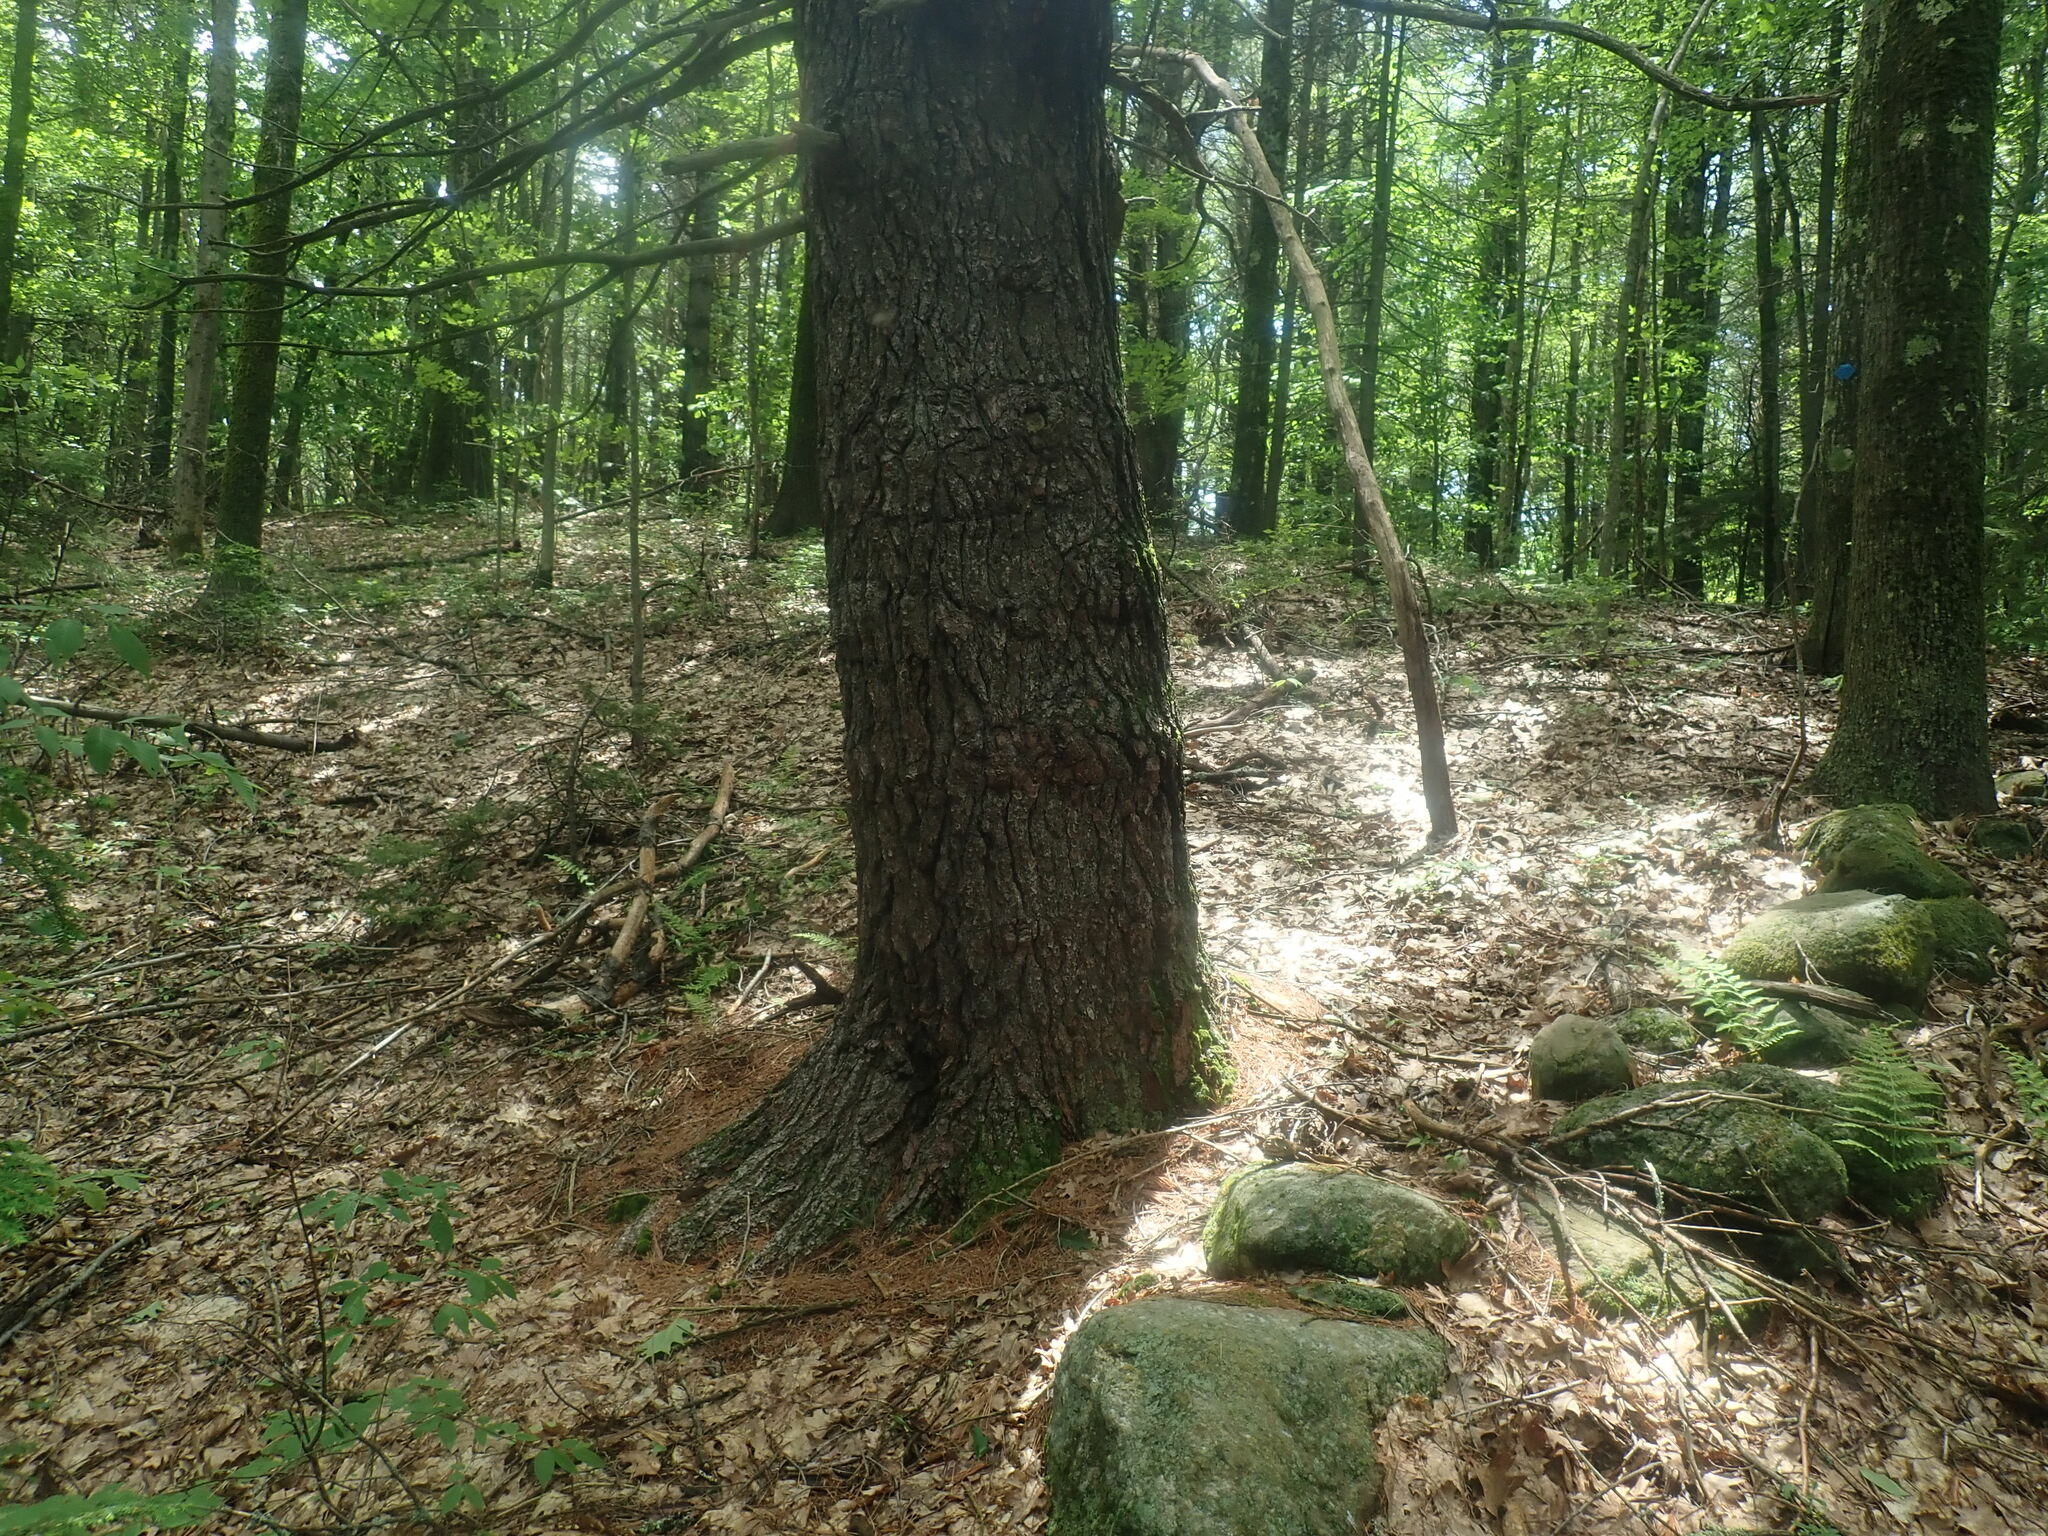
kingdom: Plantae
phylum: Tracheophyta
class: Pinopsida
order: Pinales
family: Pinaceae
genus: Pinus
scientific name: Pinus strobus
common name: Weymouth pine
